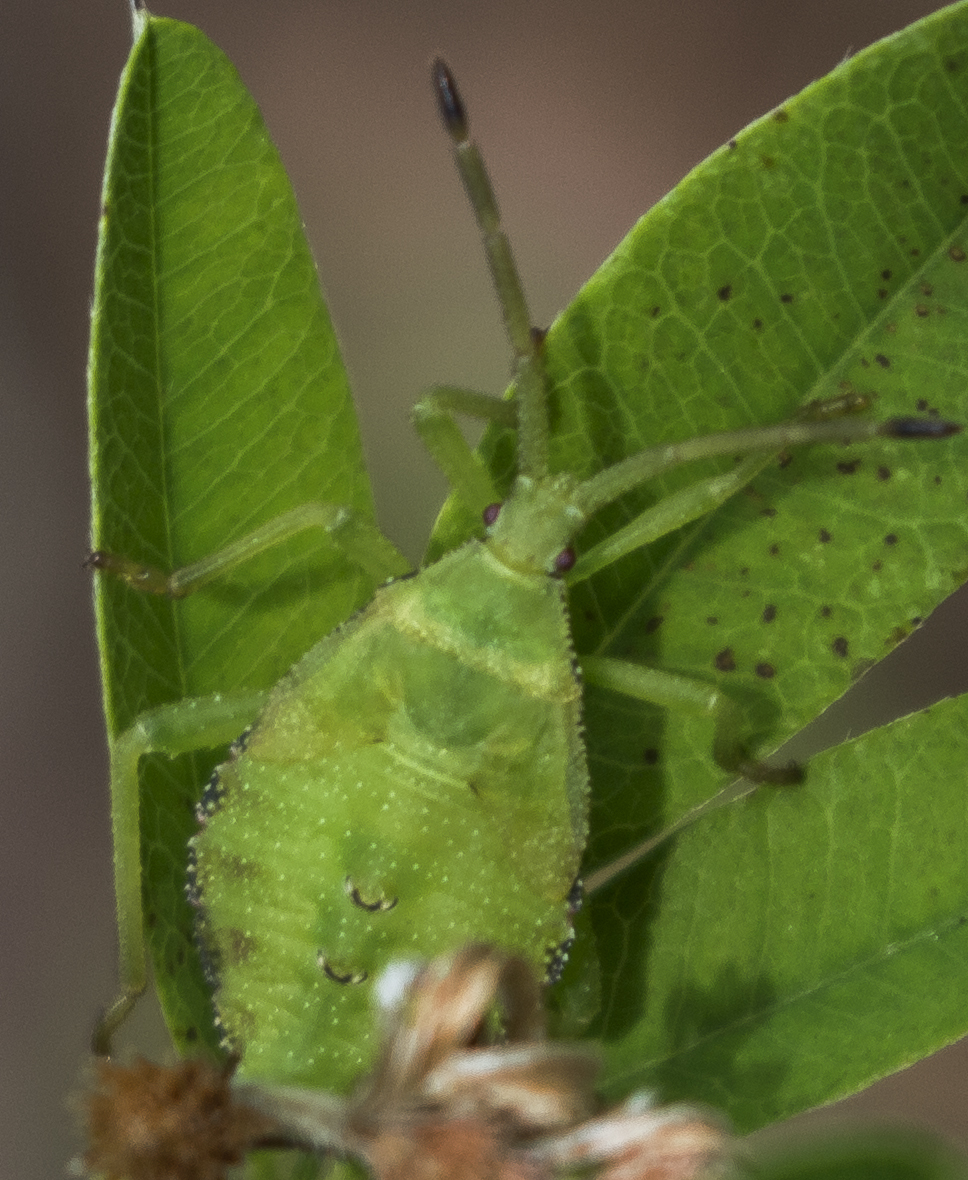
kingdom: Animalia
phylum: Arthropoda
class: Insecta
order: Hemiptera
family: Coreidae
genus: Piezogaster
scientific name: Piezogaster calcarator
